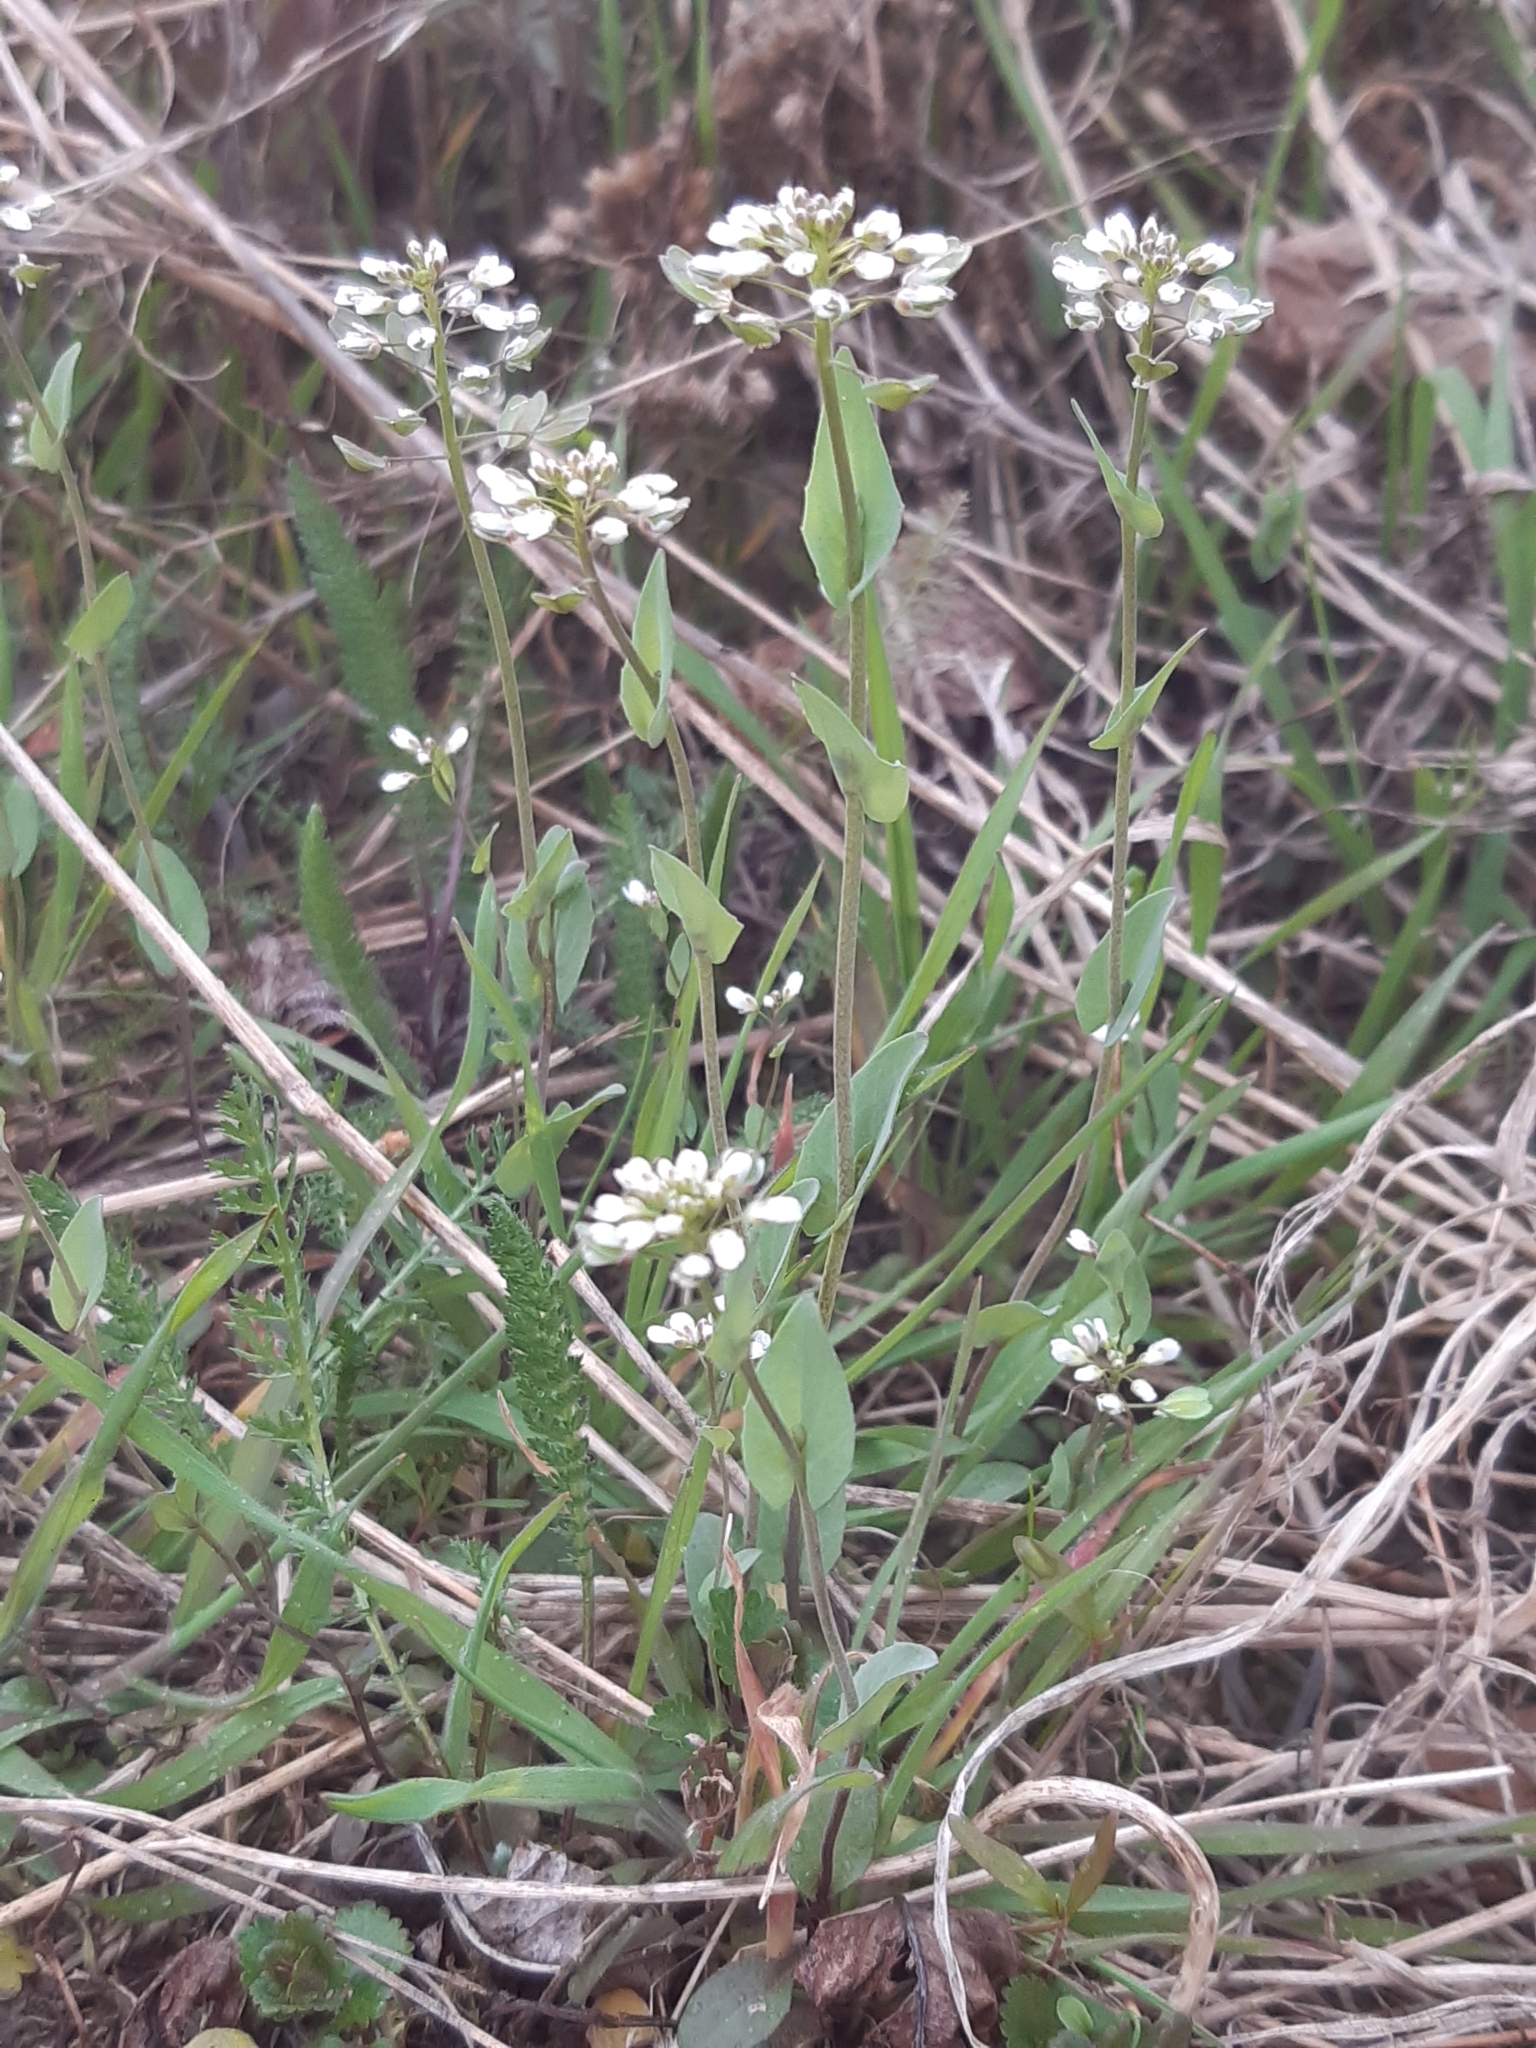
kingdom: Plantae
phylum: Tracheophyta
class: Magnoliopsida
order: Brassicales
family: Brassicaceae
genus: Noccaea
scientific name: Noccaea perfoliata
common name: Perfoliate pennycress
